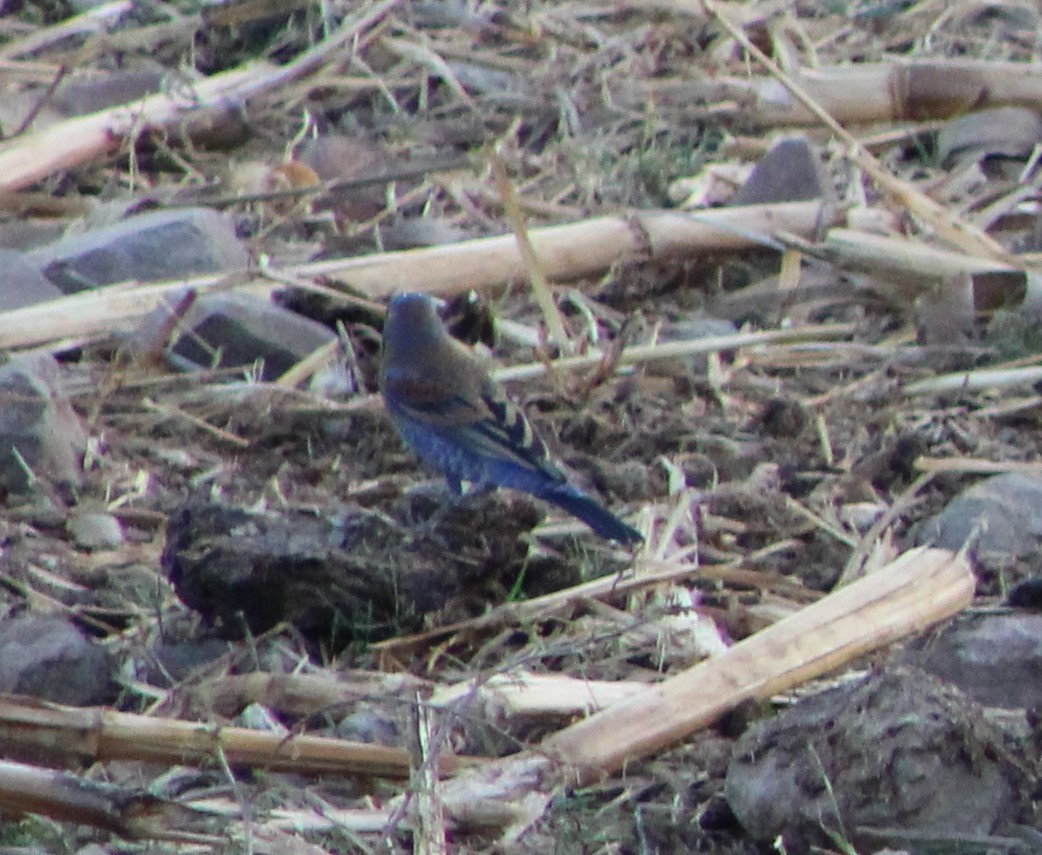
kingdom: Animalia
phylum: Chordata
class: Aves
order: Passeriformes
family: Cardinalidae
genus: Passerina
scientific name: Passerina caerulea
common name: Blue grosbeak
